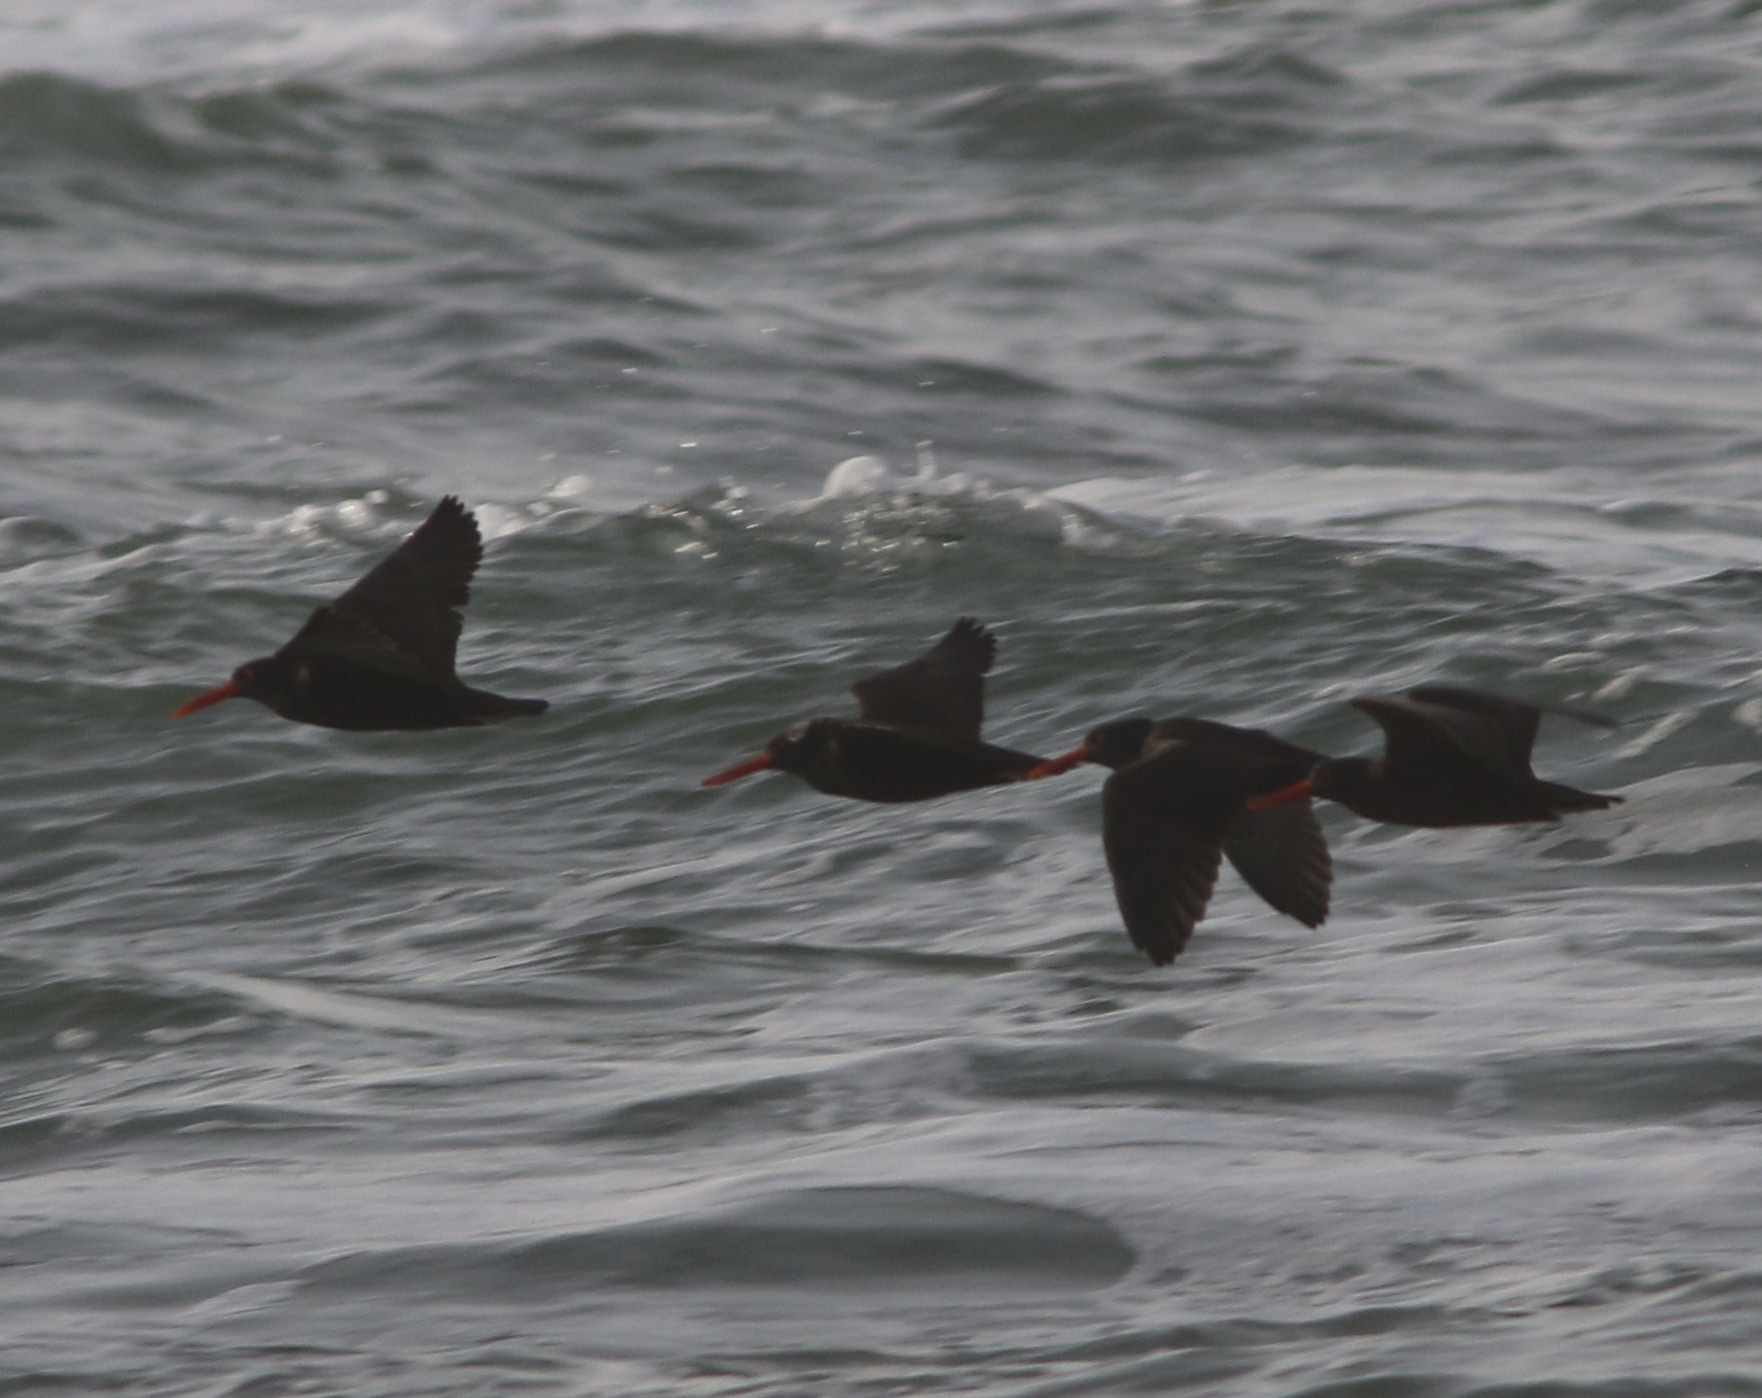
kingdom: Animalia
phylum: Chordata
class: Aves
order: Charadriiformes
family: Haematopodidae
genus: Haematopus
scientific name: Haematopus bachmani
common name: Black oystercatcher
